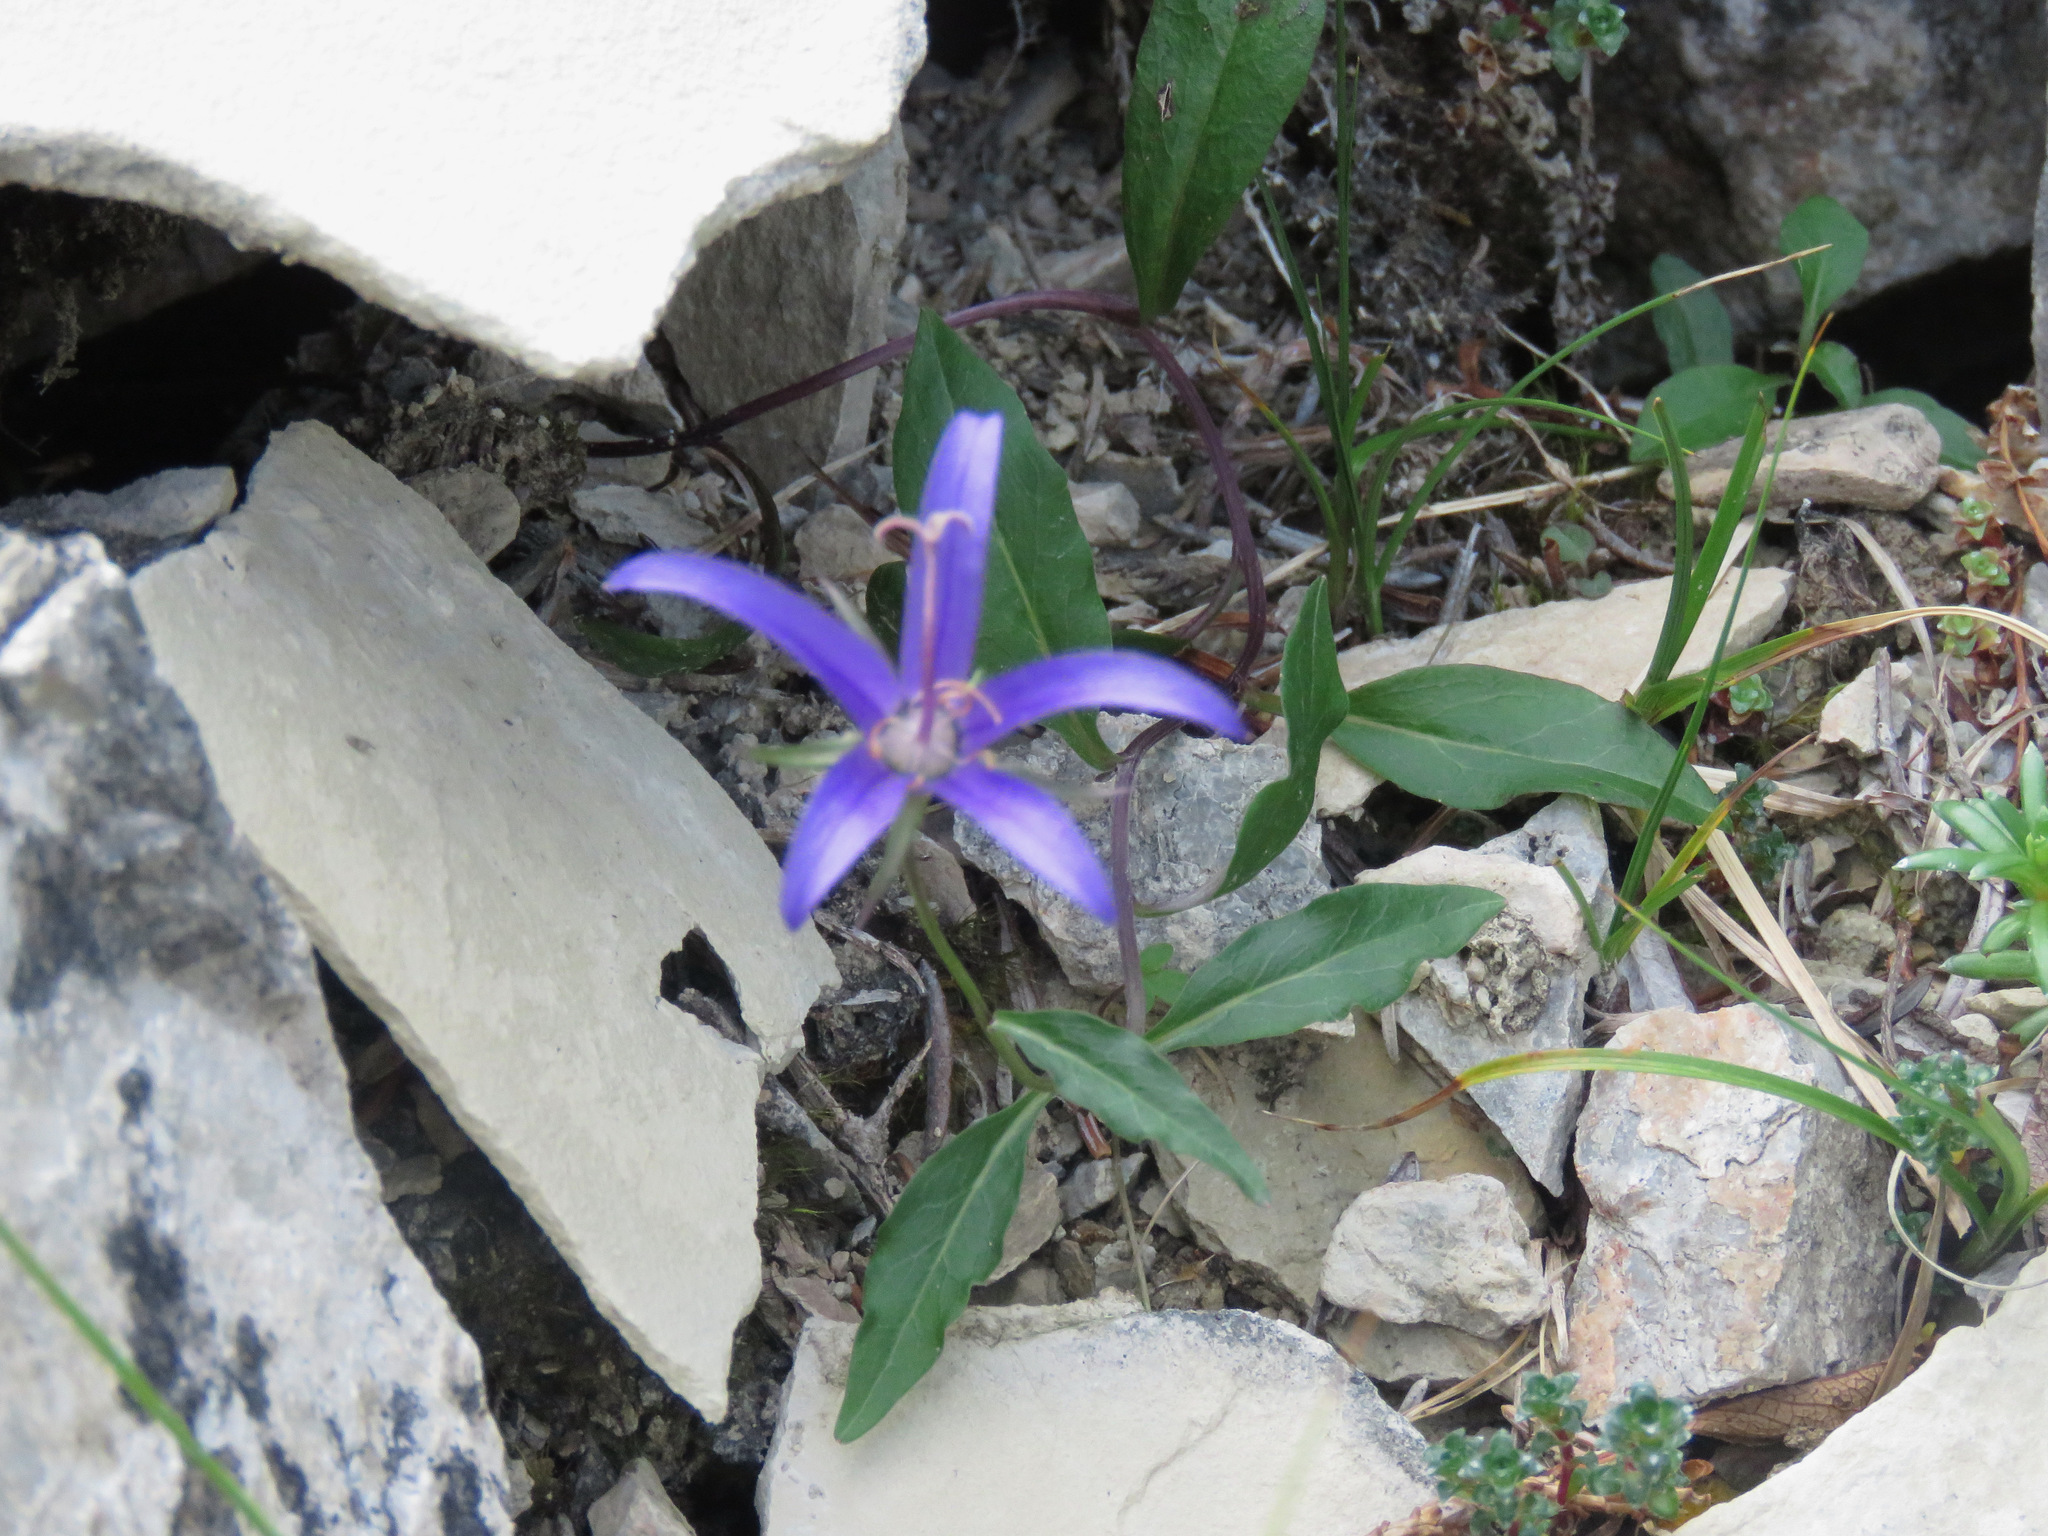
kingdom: Plantae
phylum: Tracheophyta
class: Magnoliopsida
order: Asterales
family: Campanulaceae
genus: Campanula
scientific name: Campanula aurita
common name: Yukon bellflower
